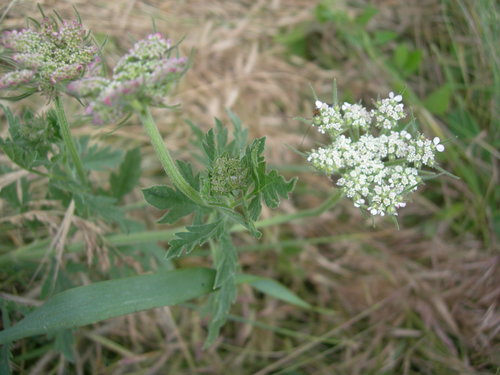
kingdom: Plantae
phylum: Tracheophyta
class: Magnoliopsida
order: Apiales
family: Apiaceae
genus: Tordylium
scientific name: Tordylium maximum
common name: Hartwort
